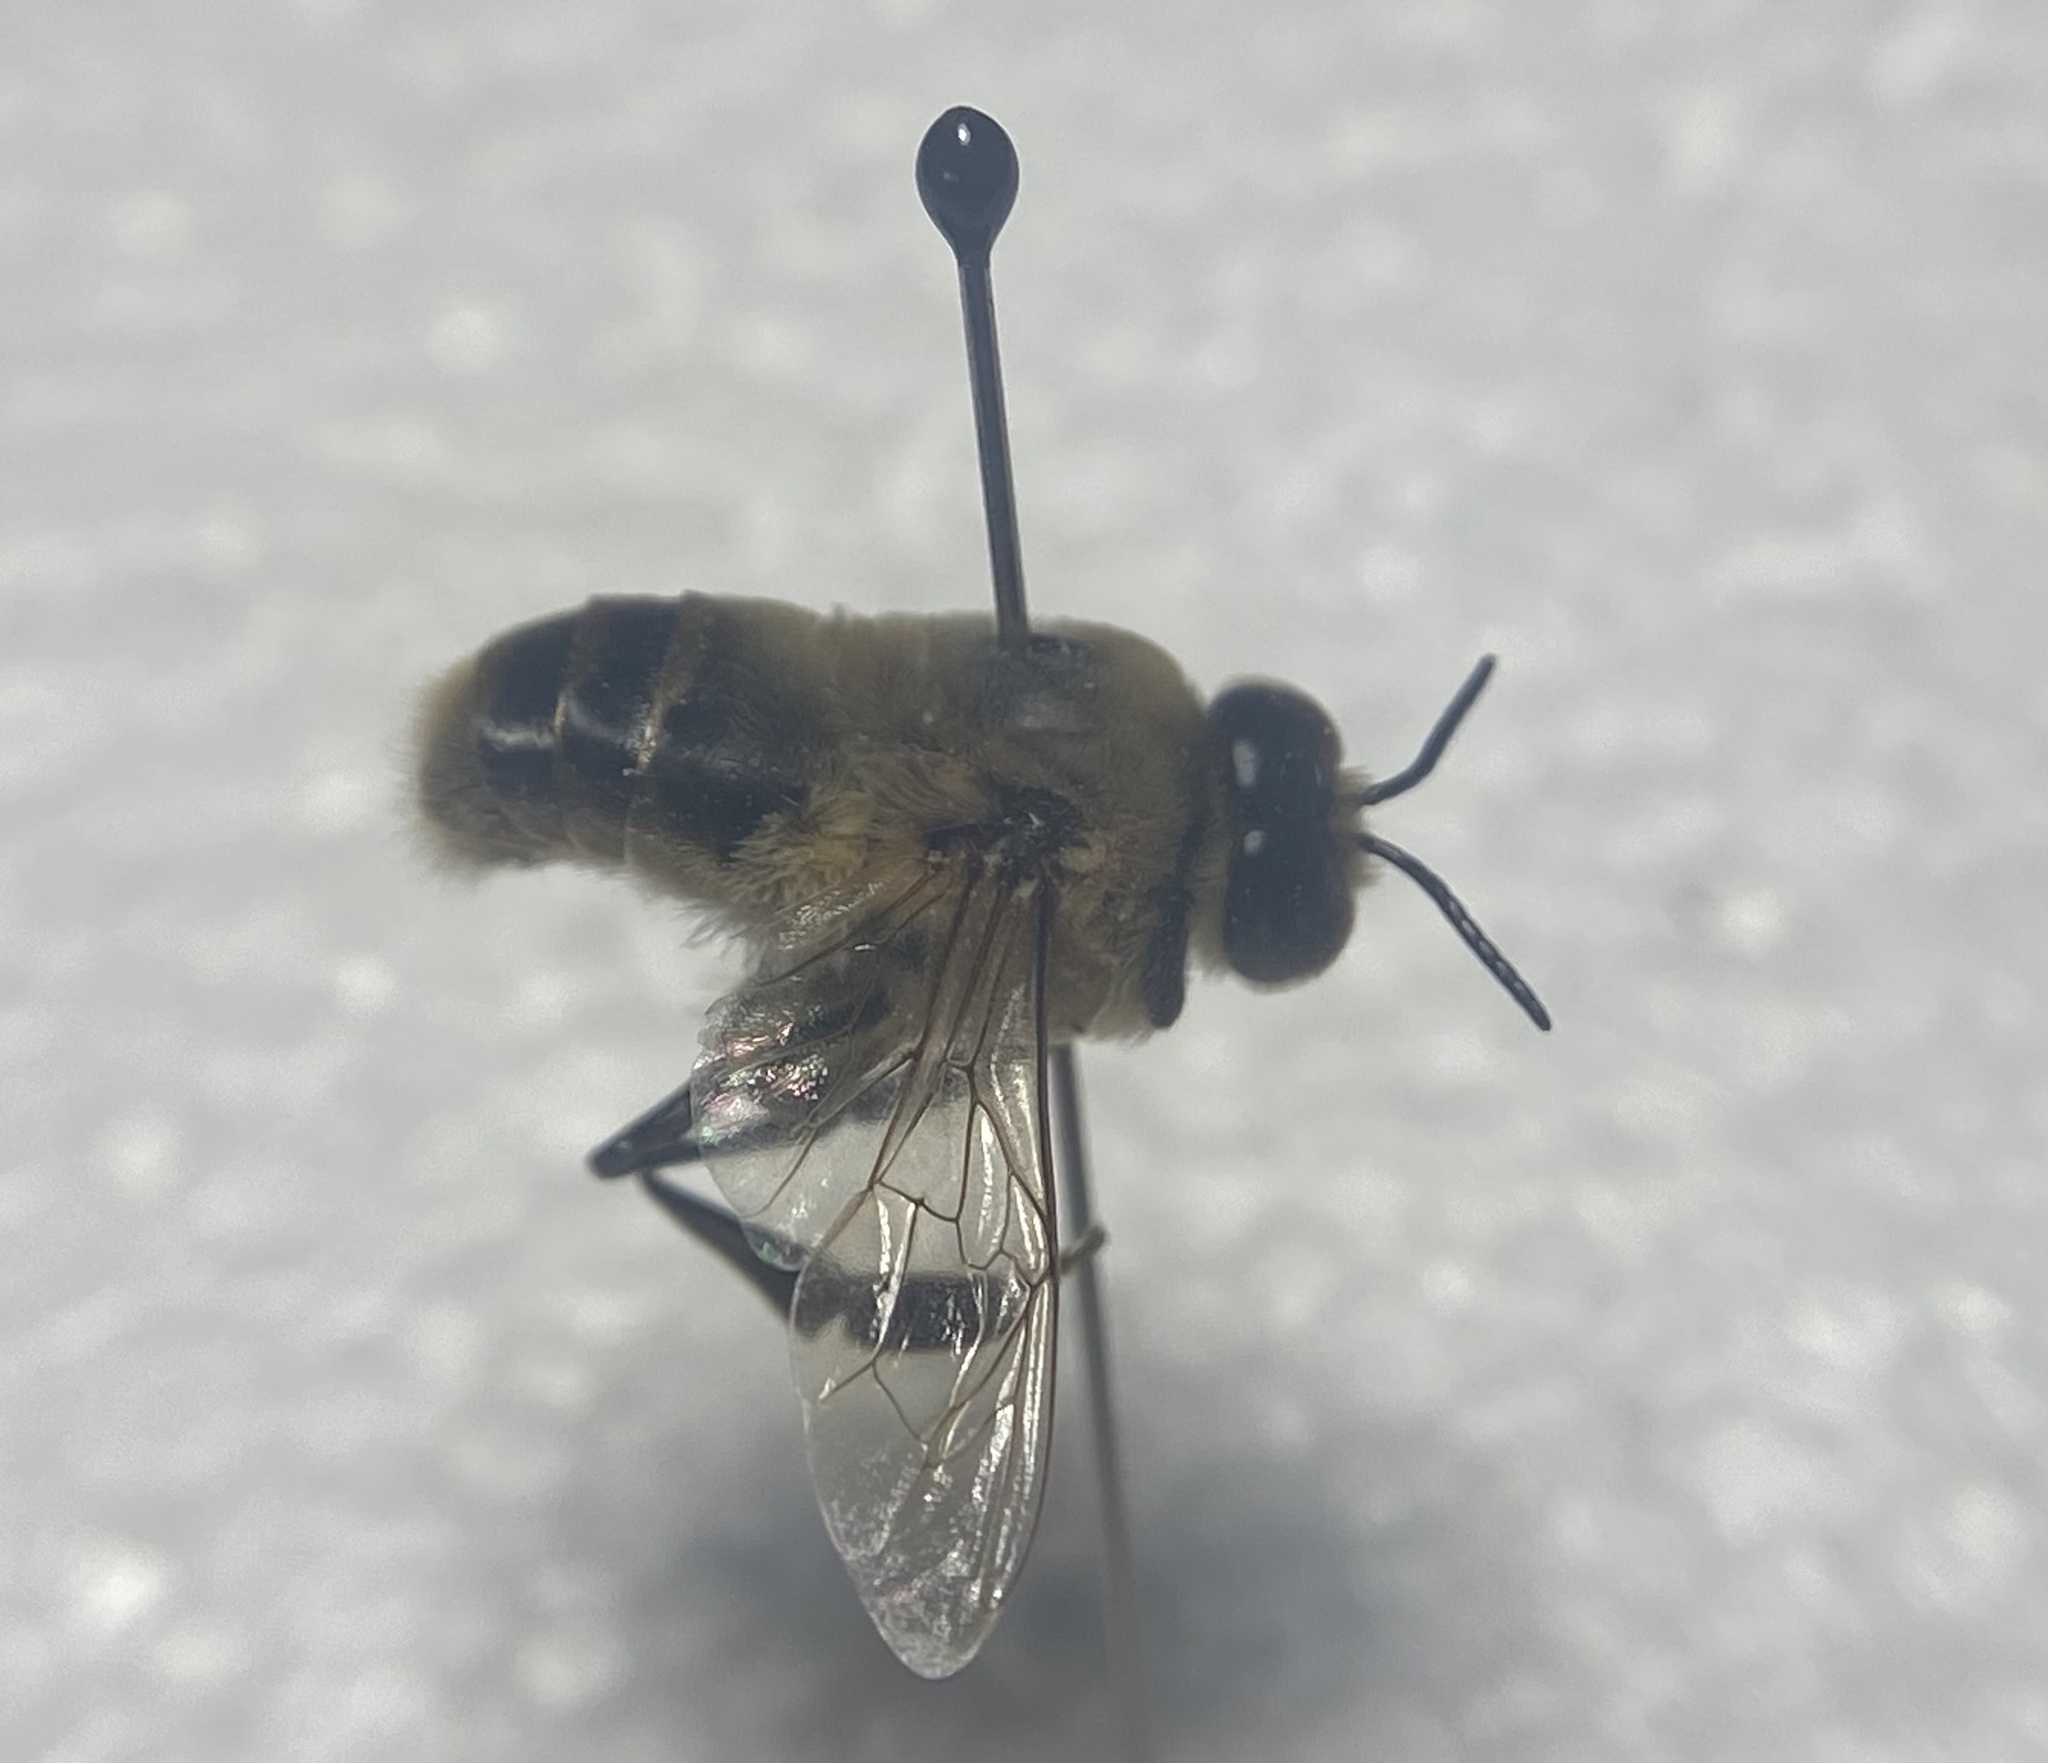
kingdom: Animalia
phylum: Arthropoda
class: Insecta
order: Hymenoptera
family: Apidae
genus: Apis
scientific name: Apis mellifera
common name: Honey bee
